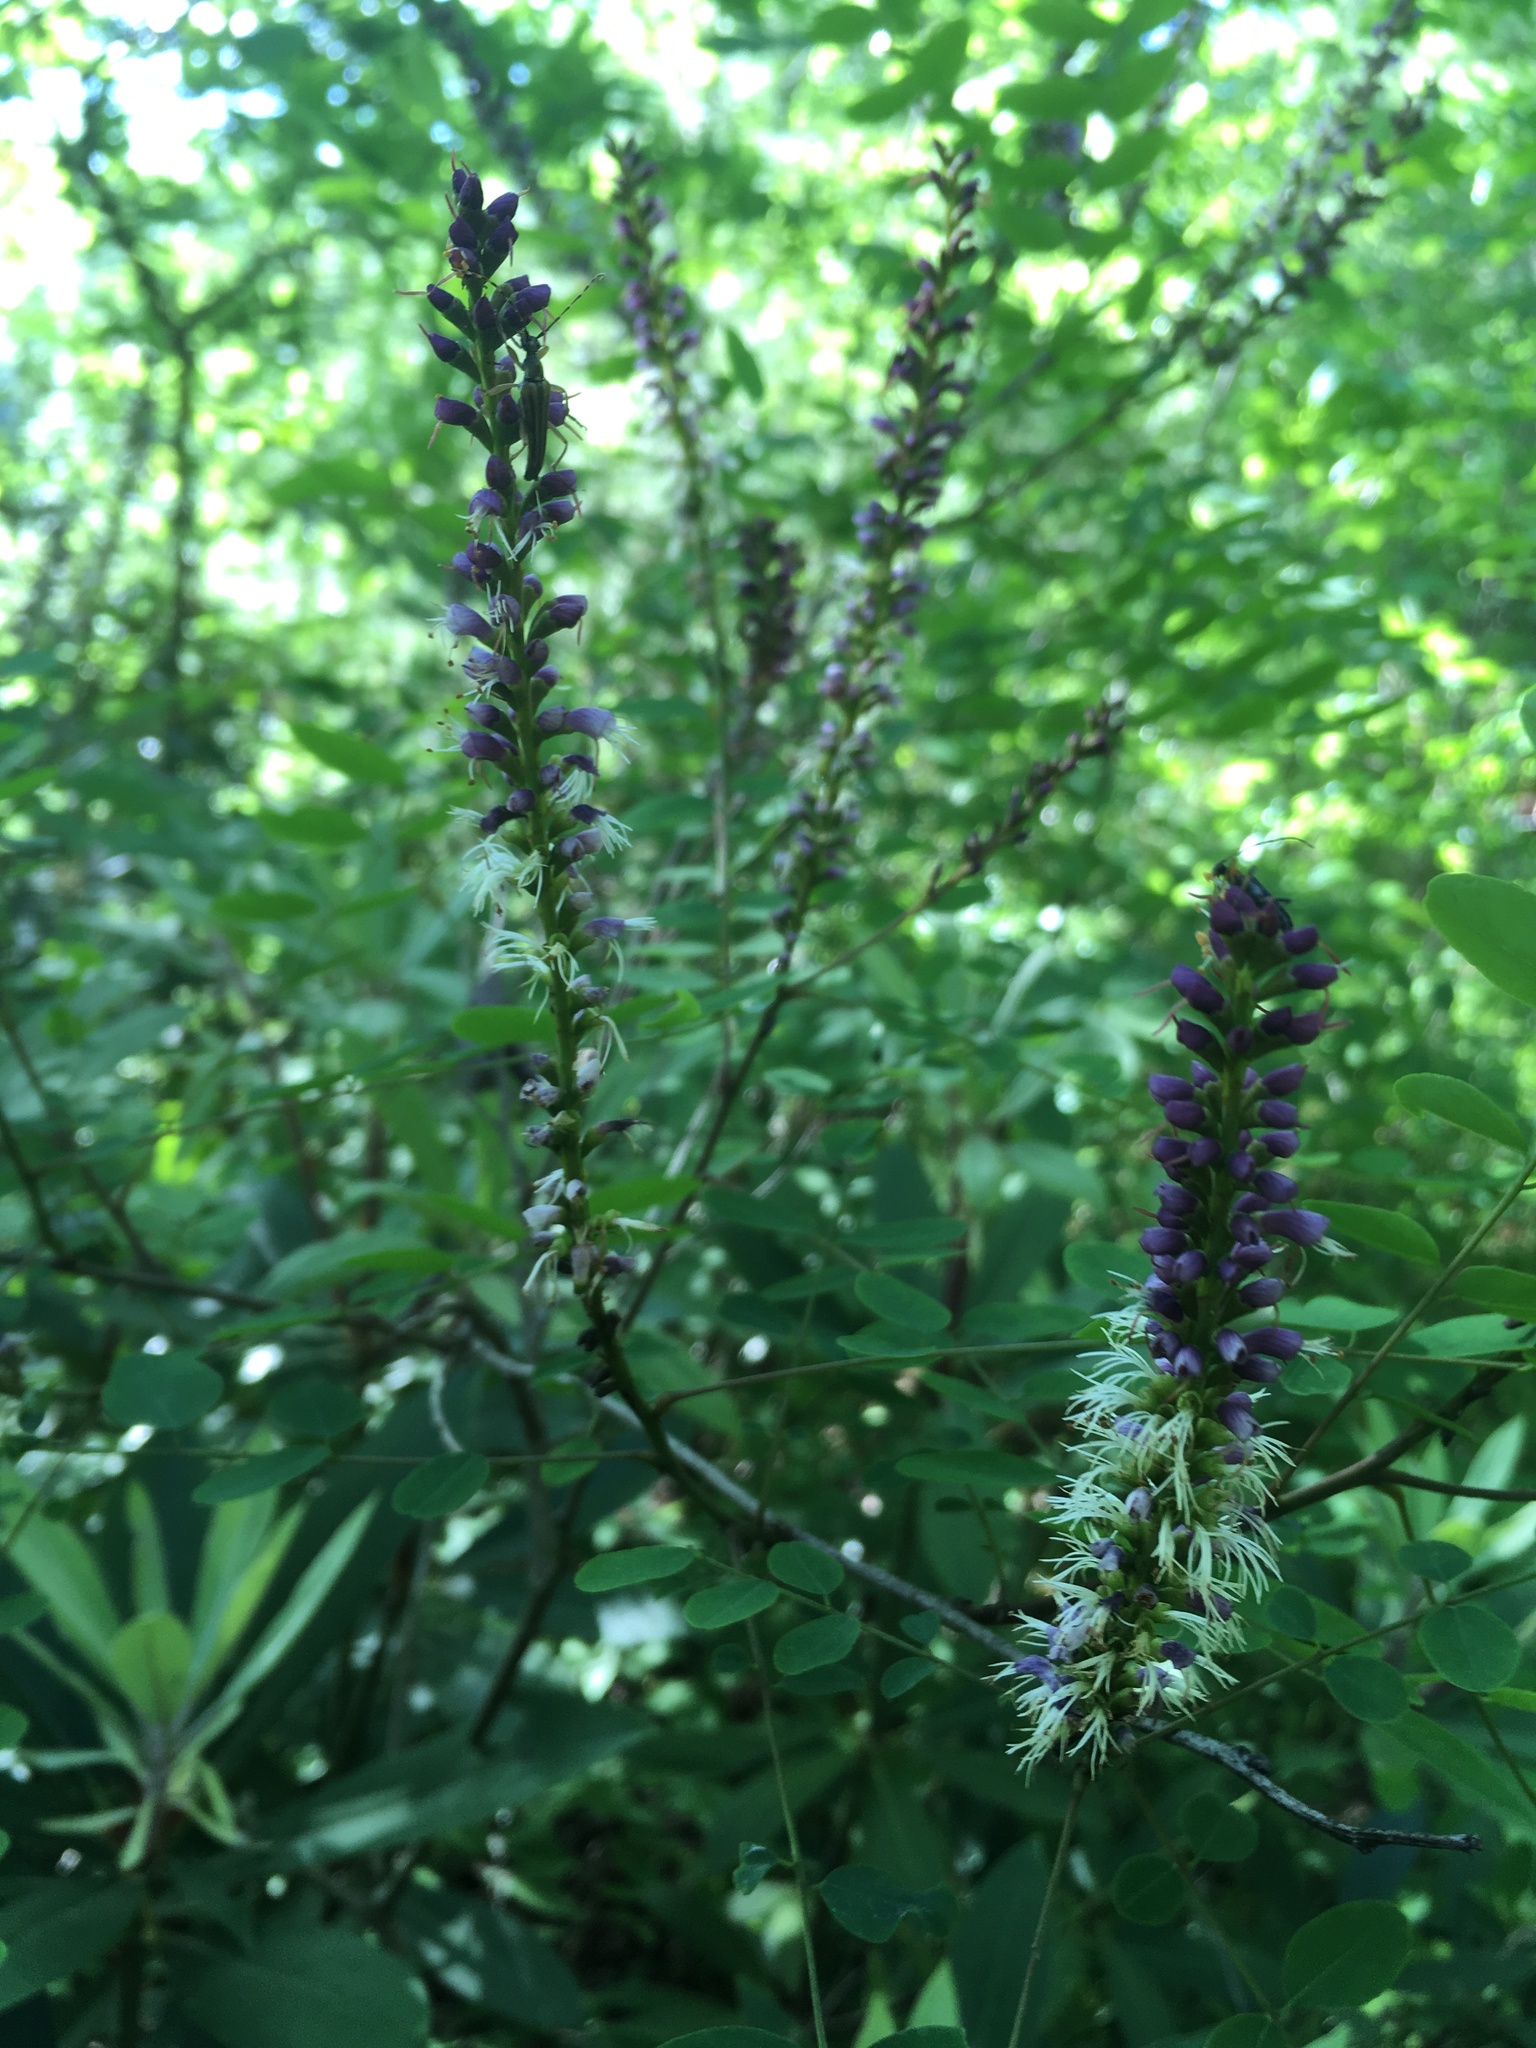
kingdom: Plantae
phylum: Tracheophyta
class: Magnoliopsida
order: Fabales
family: Fabaceae
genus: Amorpha
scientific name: Amorpha fruticosa
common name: False indigo
